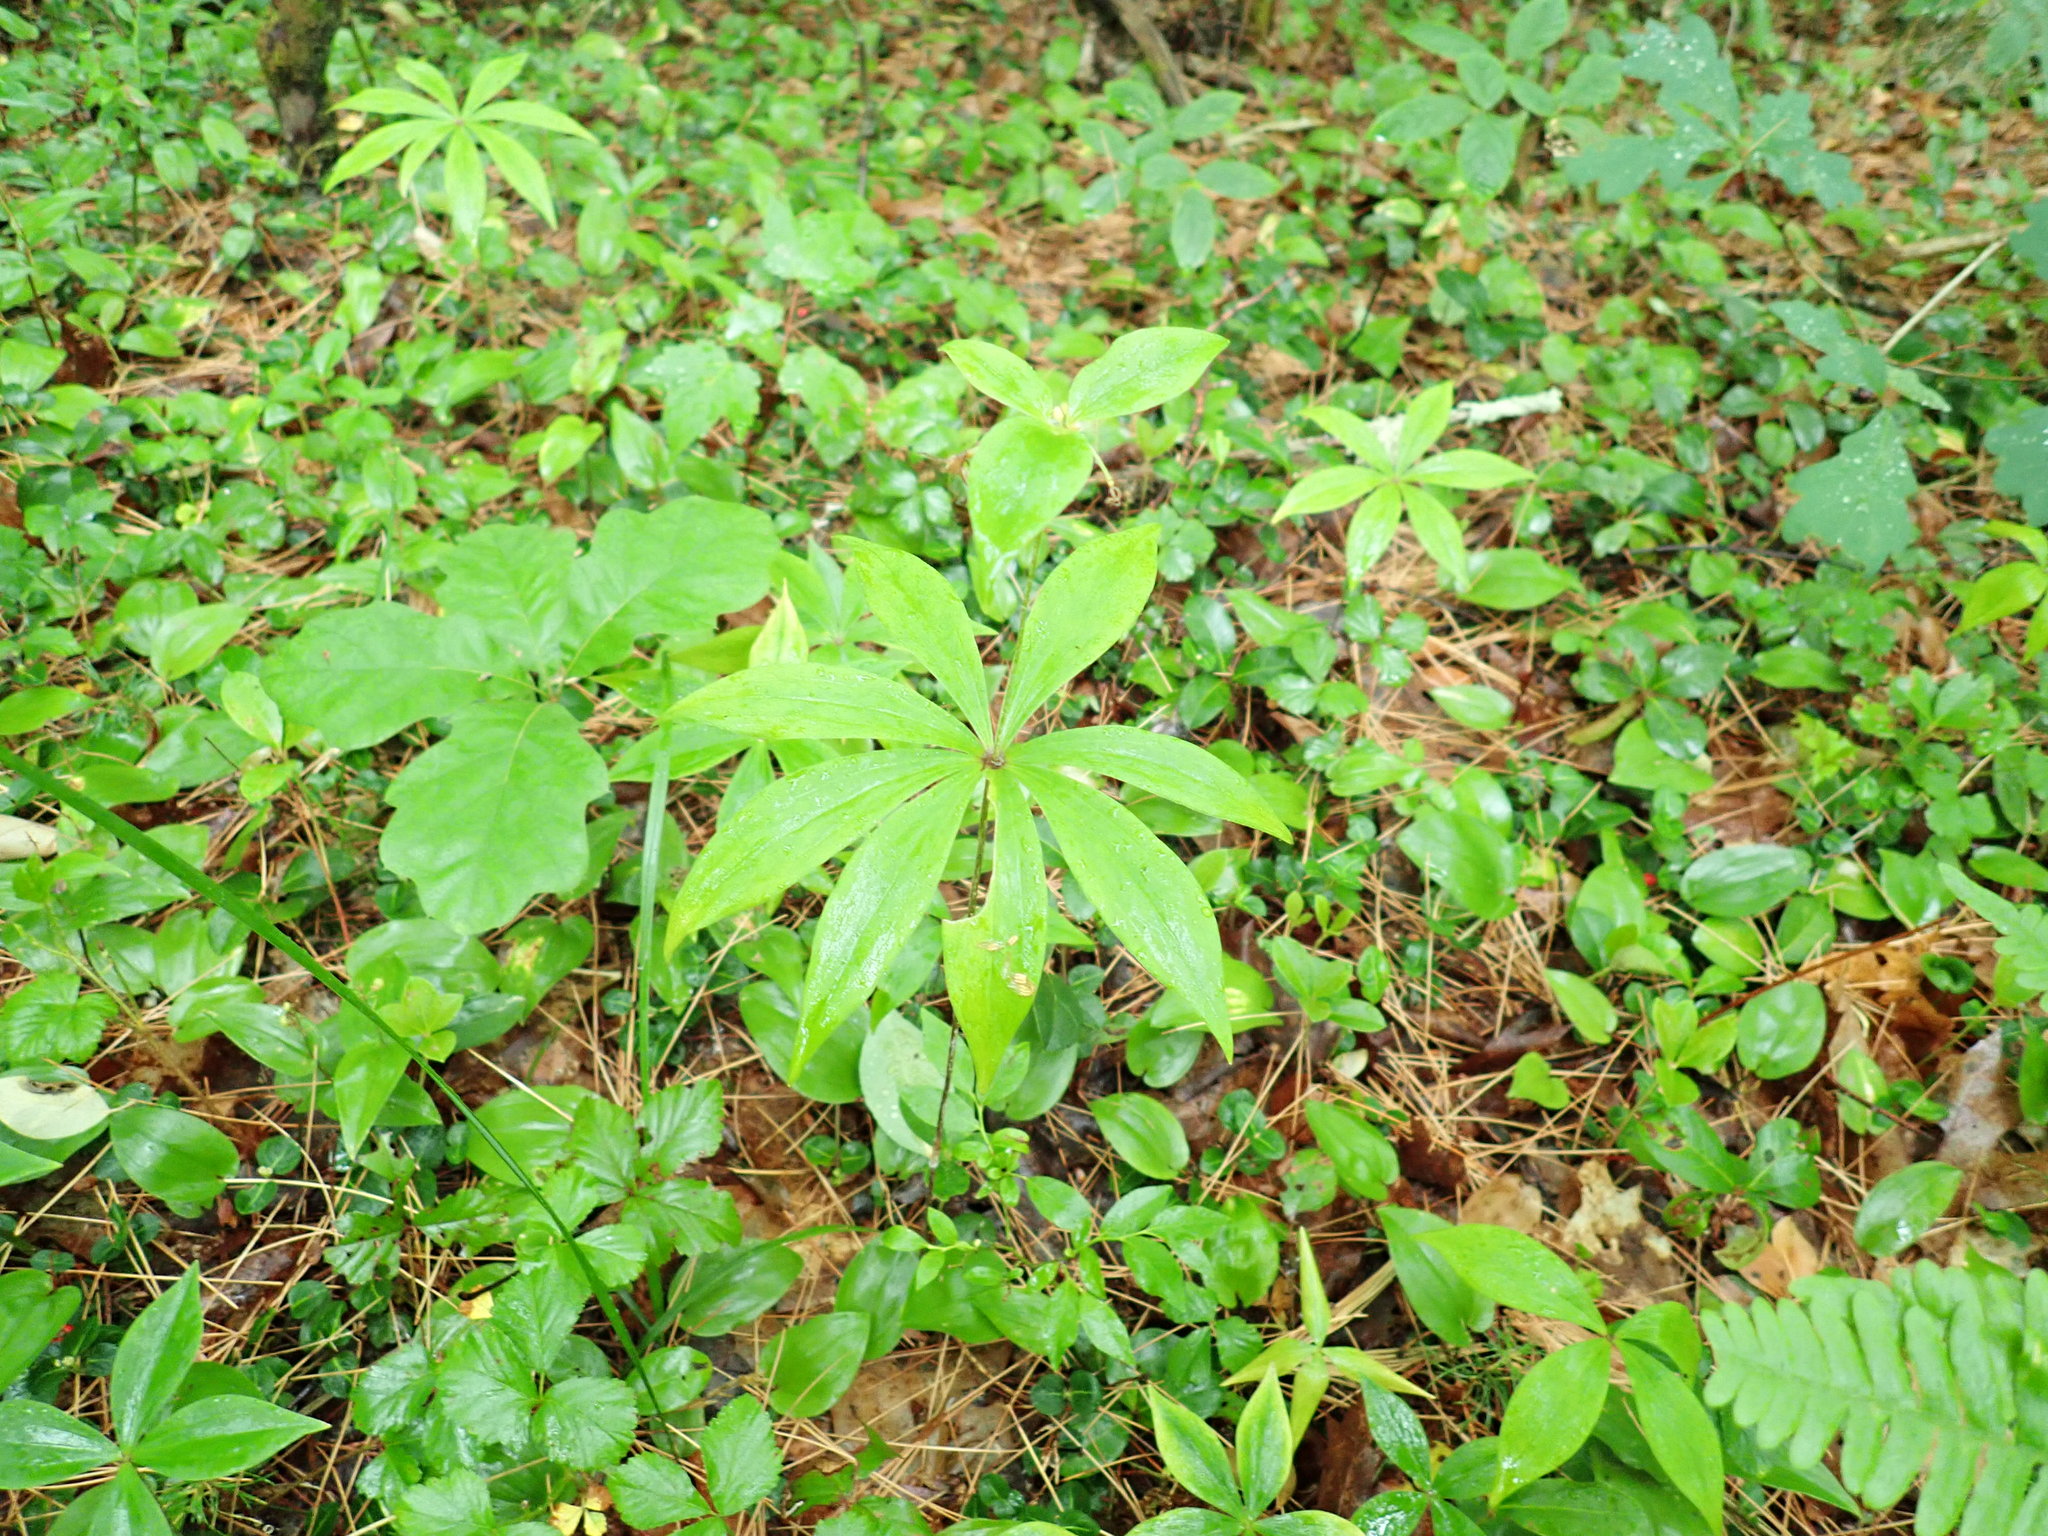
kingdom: Plantae
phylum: Tracheophyta
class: Liliopsida
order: Liliales
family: Liliaceae
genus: Medeola
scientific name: Medeola virginiana
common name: Indian cucumber-root
